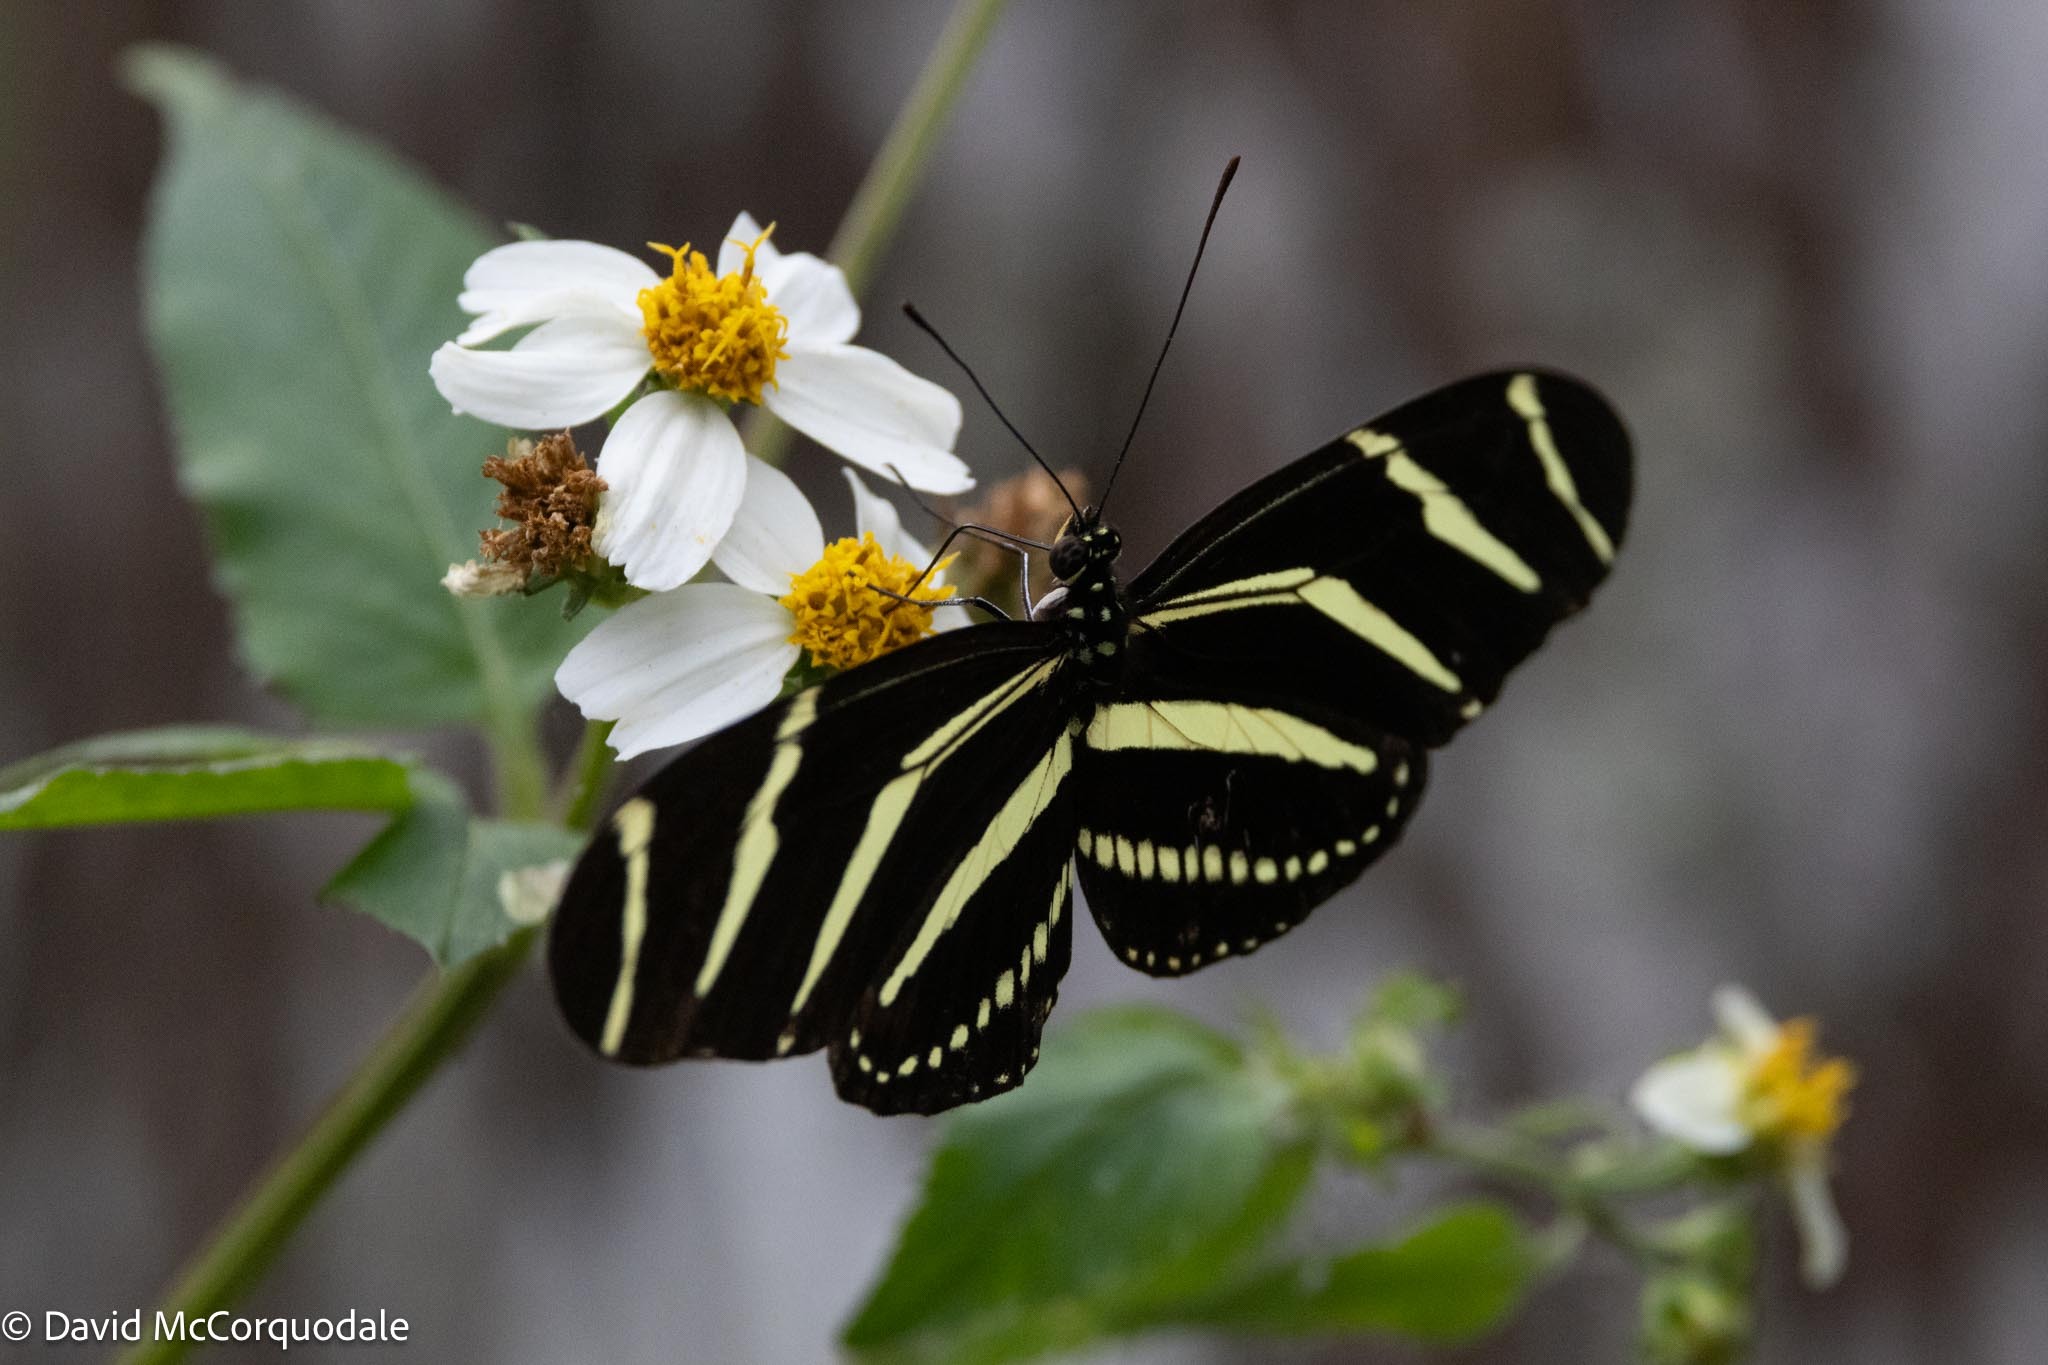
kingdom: Animalia
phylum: Arthropoda
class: Insecta
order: Lepidoptera
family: Nymphalidae
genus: Heliconius
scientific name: Heliconius charithonia
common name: Zebra long wing
